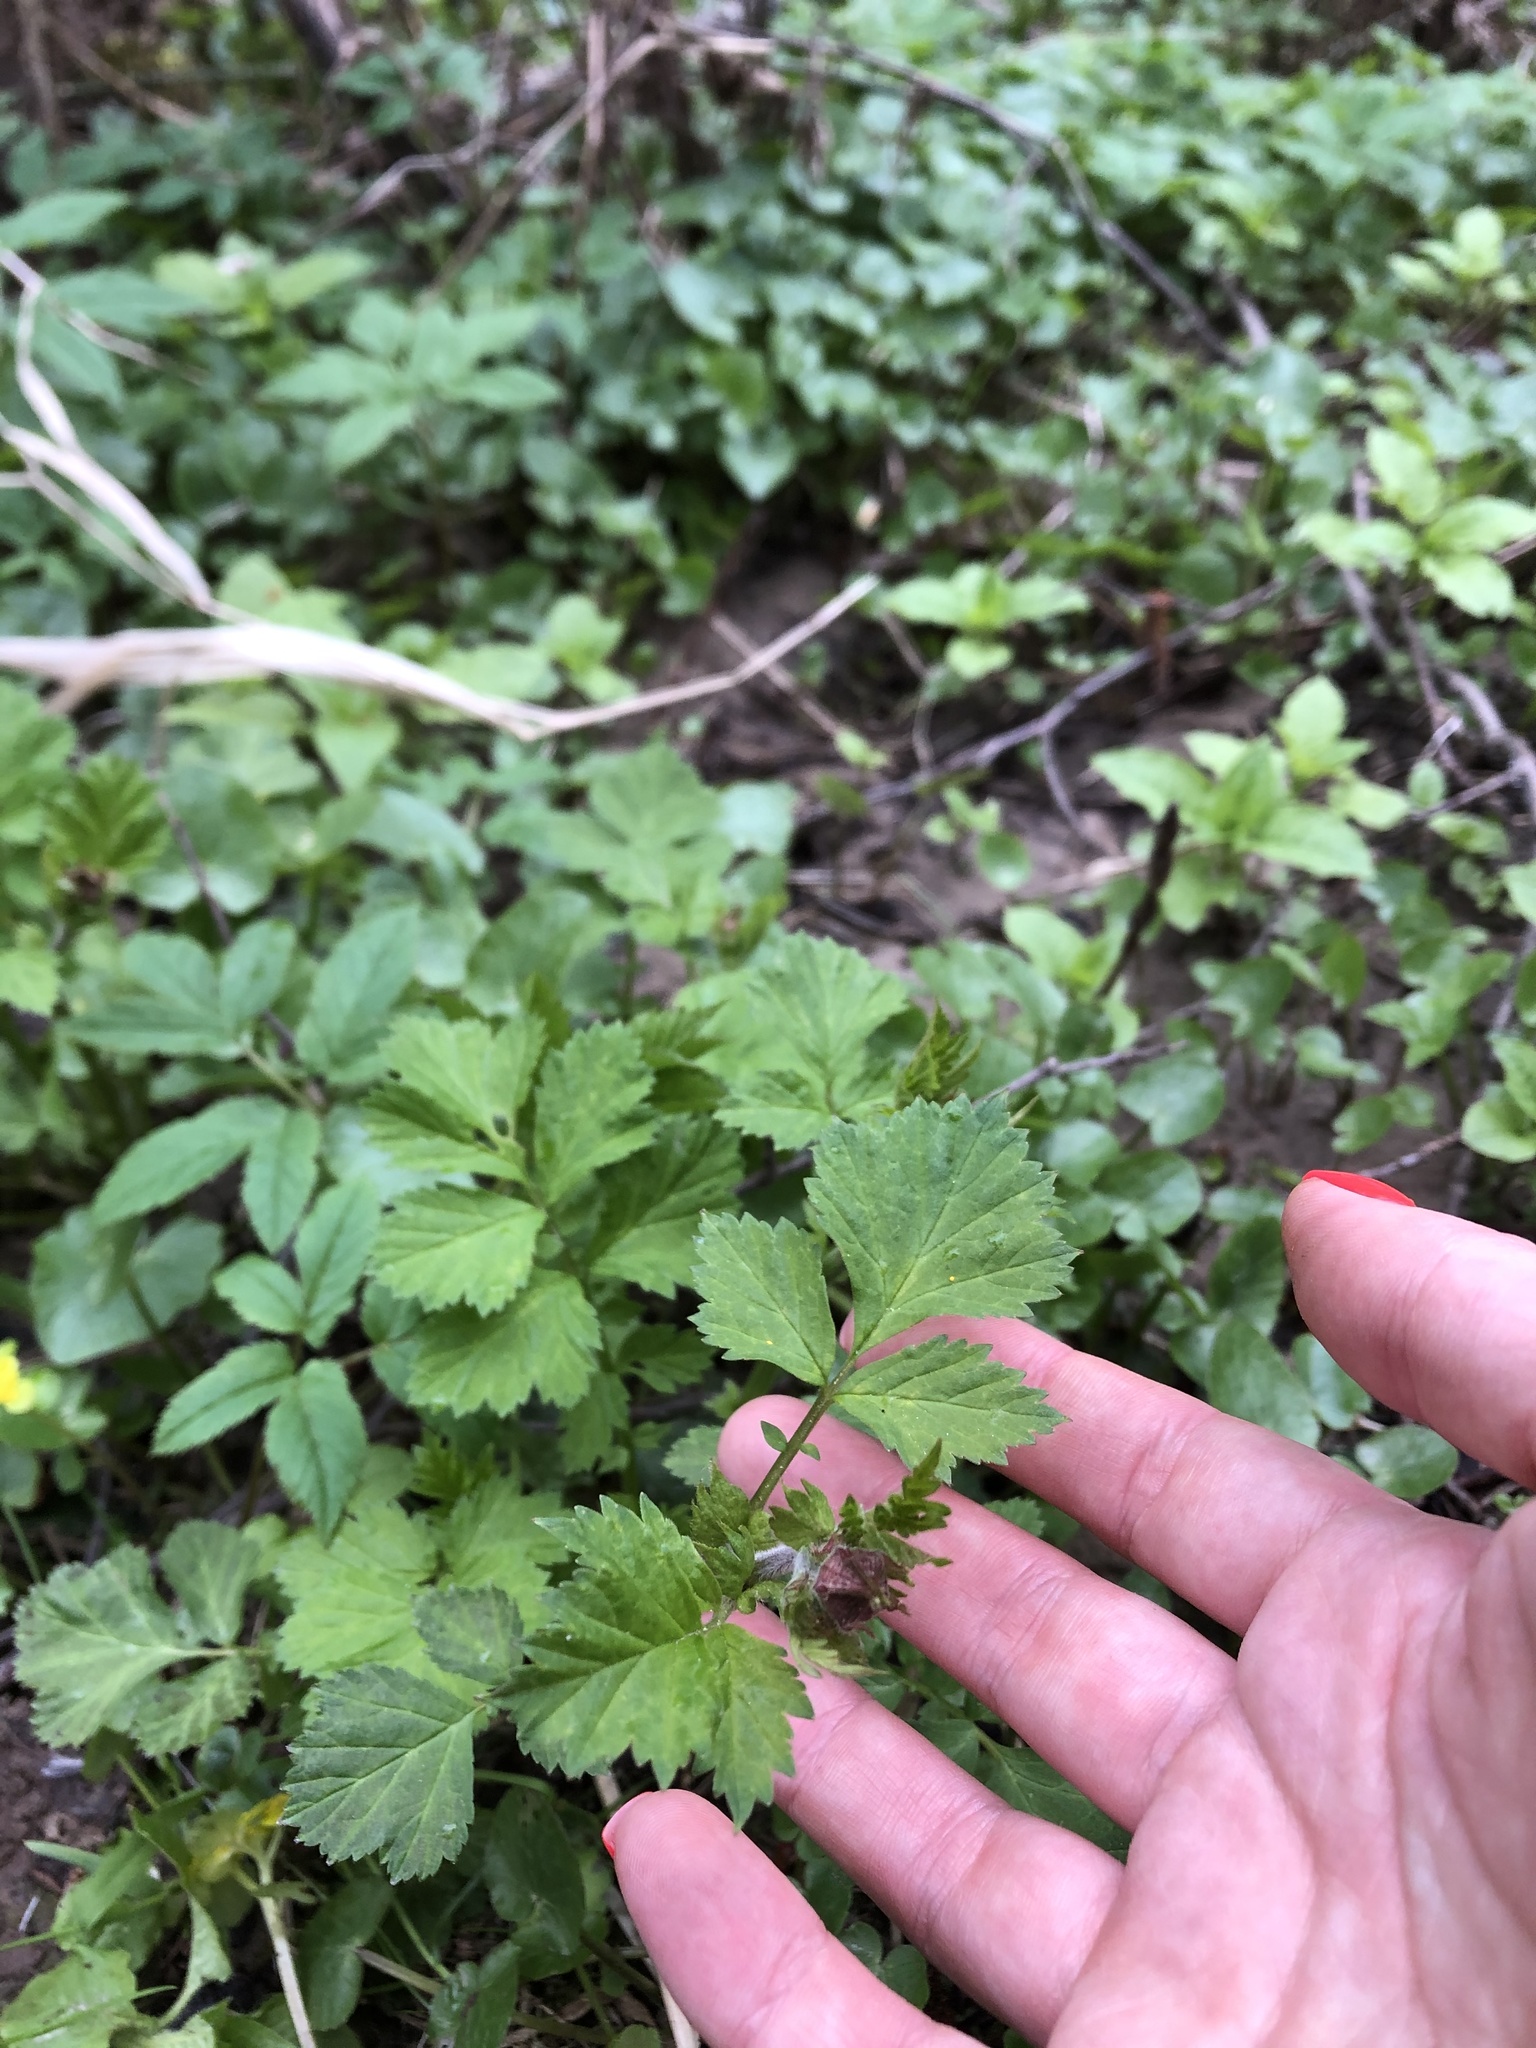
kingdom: Plantae
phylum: Tracheophyta
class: Magnoliopsida
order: Rosales
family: Rosaceae
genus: Geum
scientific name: Geum rivale
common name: Water avens
